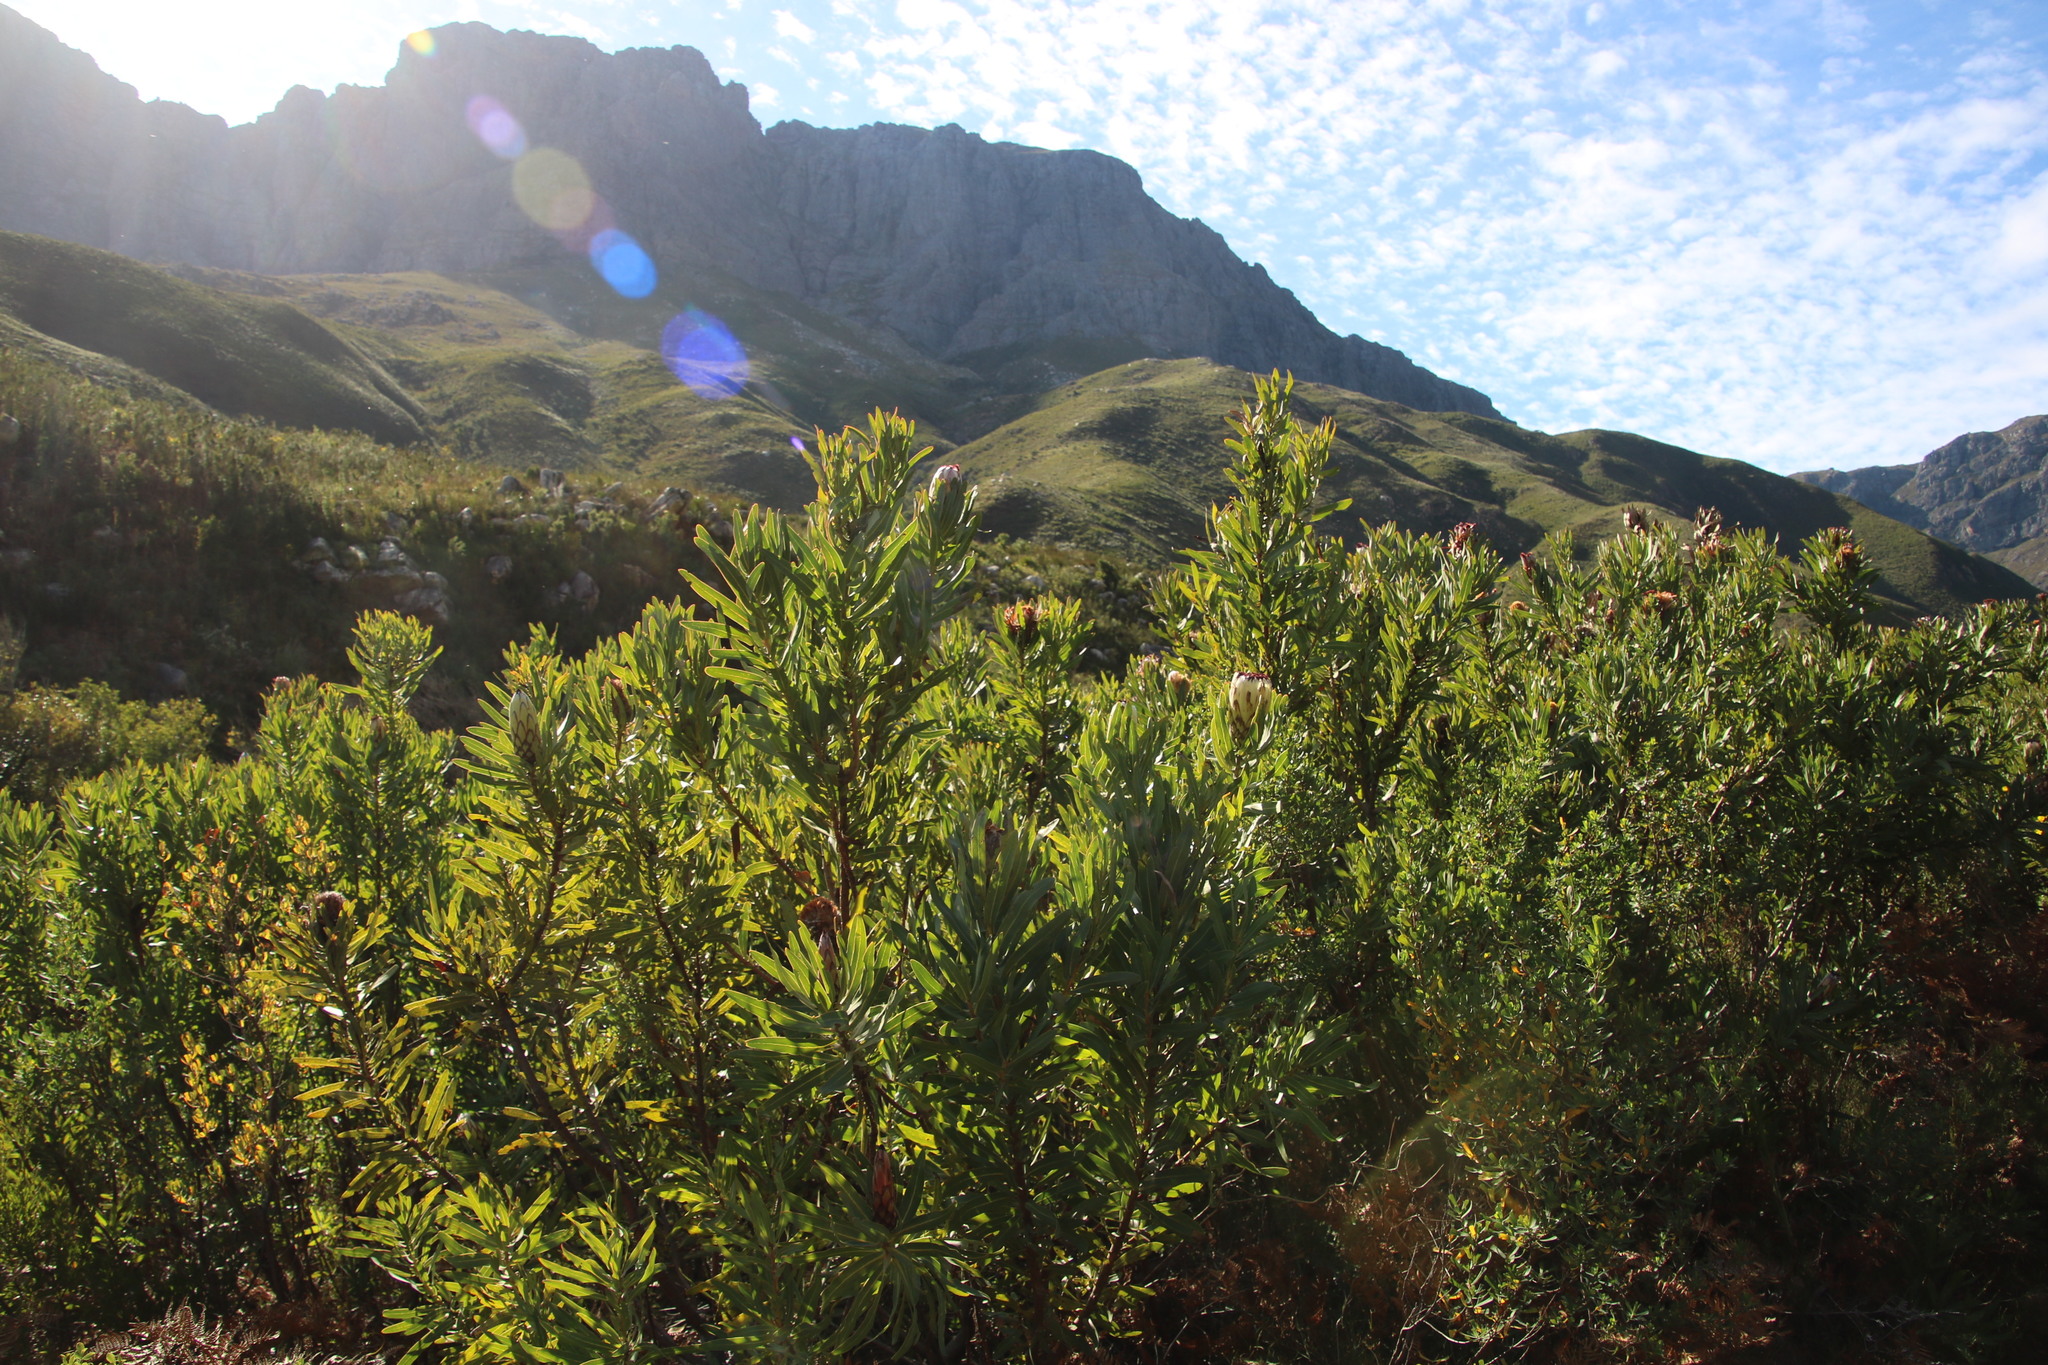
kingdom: Plantae
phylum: Tracheophyta
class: Magnoliopsida
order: Proteales
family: Proteaceae
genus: Protea
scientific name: Protea neriifolia
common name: Blue sugarbush
